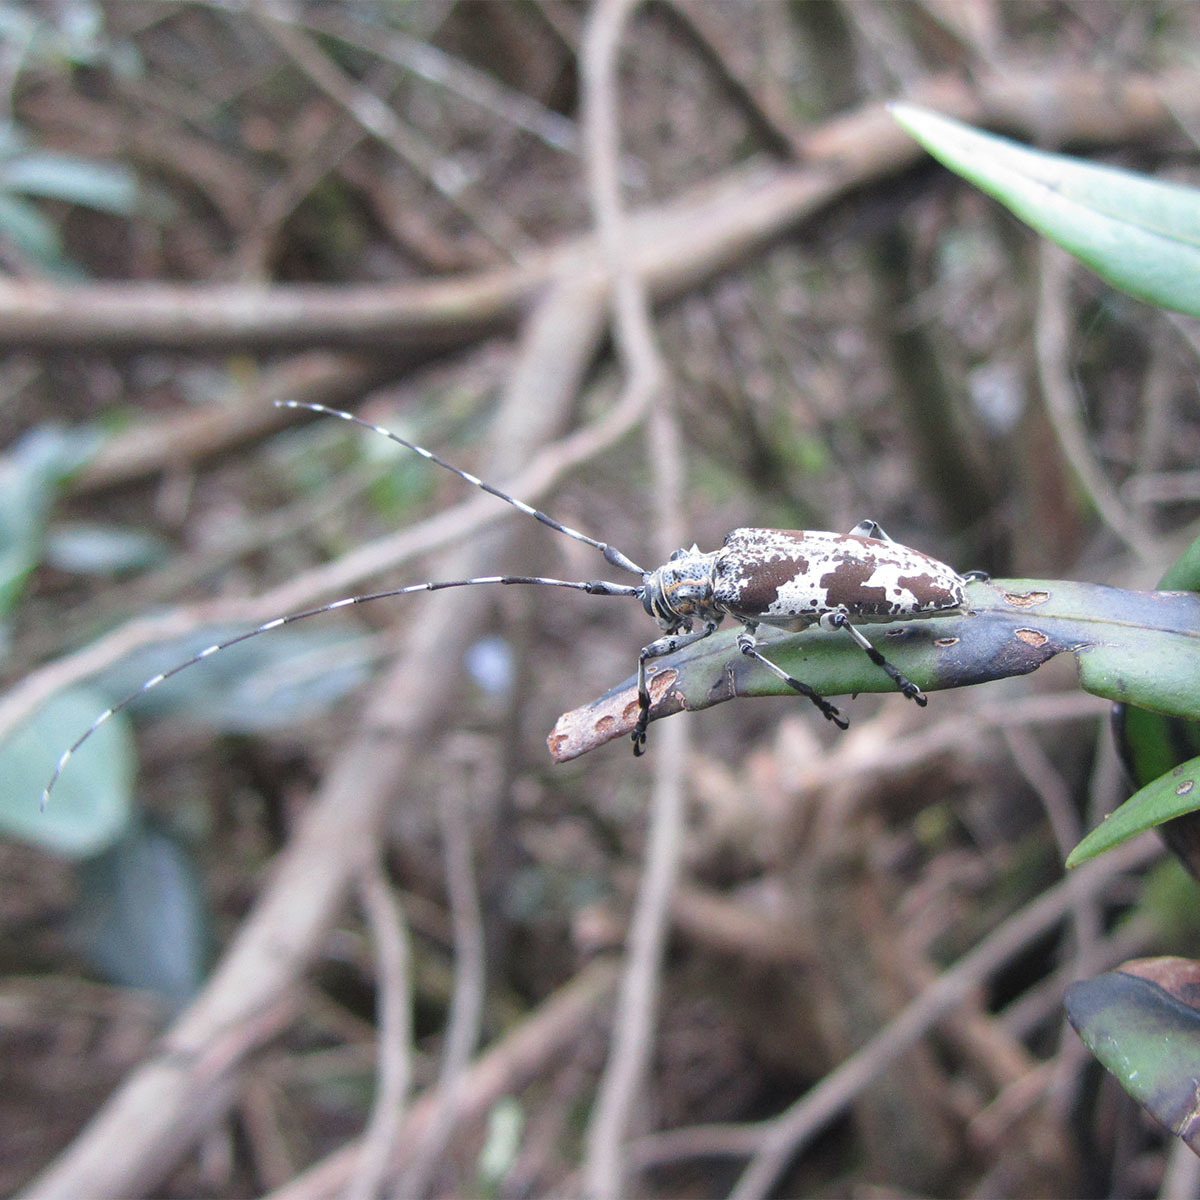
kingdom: Animalia
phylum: Arthropoda
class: Insecta
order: Coleoptera
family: Cerambycidae
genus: Rhodopina
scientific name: Rhodopina quadrituberculata
